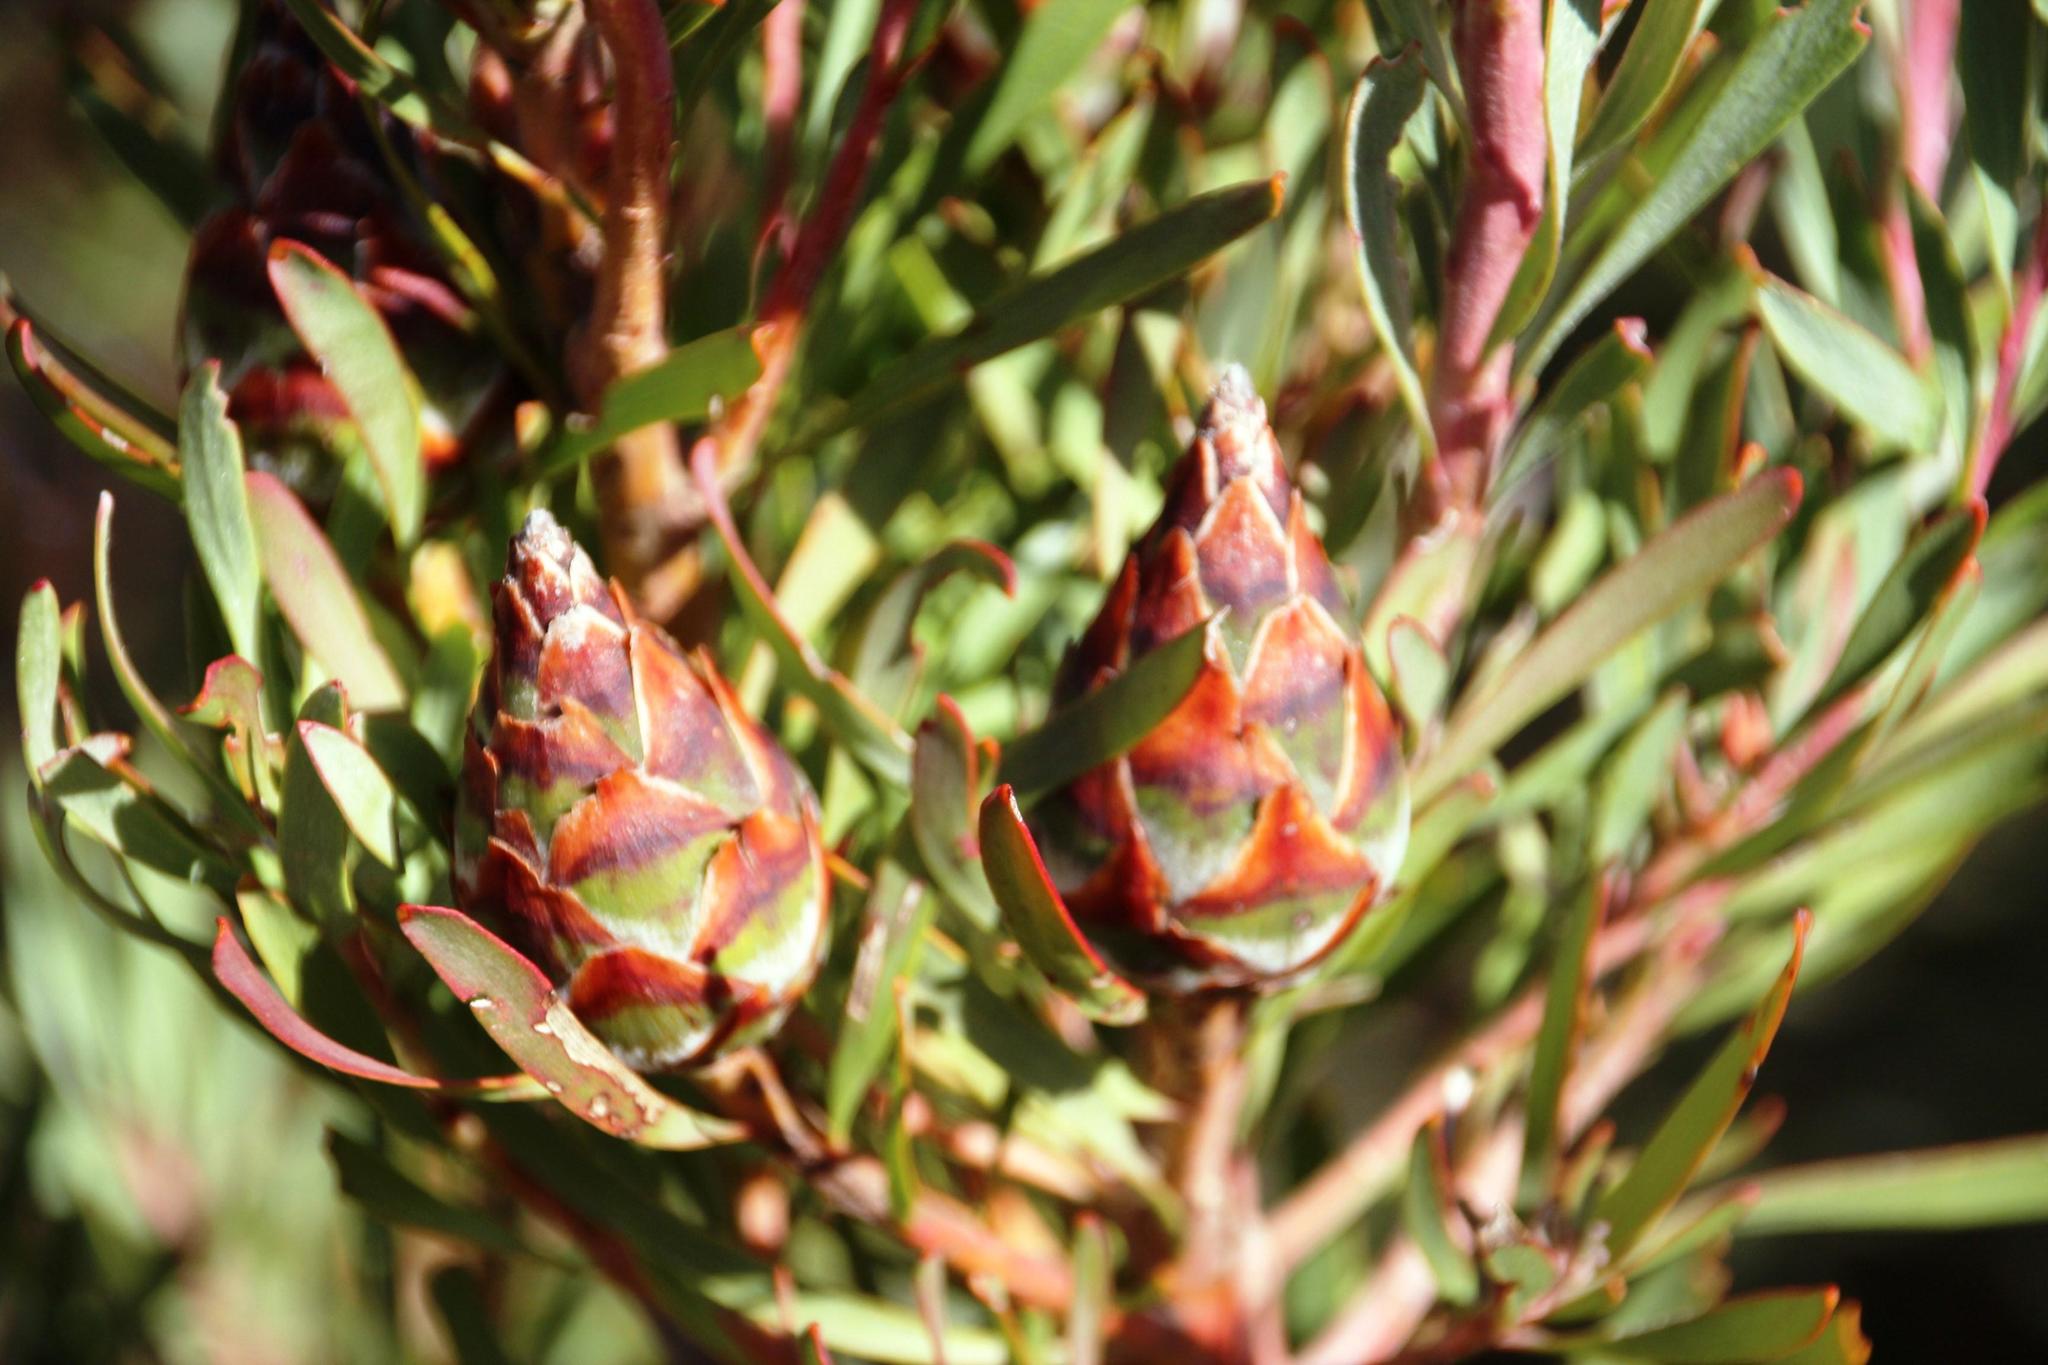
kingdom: Plantae
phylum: Tracheophyta
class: Magnoliopsida
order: Proteales
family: Proteaceae
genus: Leucadendron
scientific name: Leucadendron rubrum
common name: Spinning top
